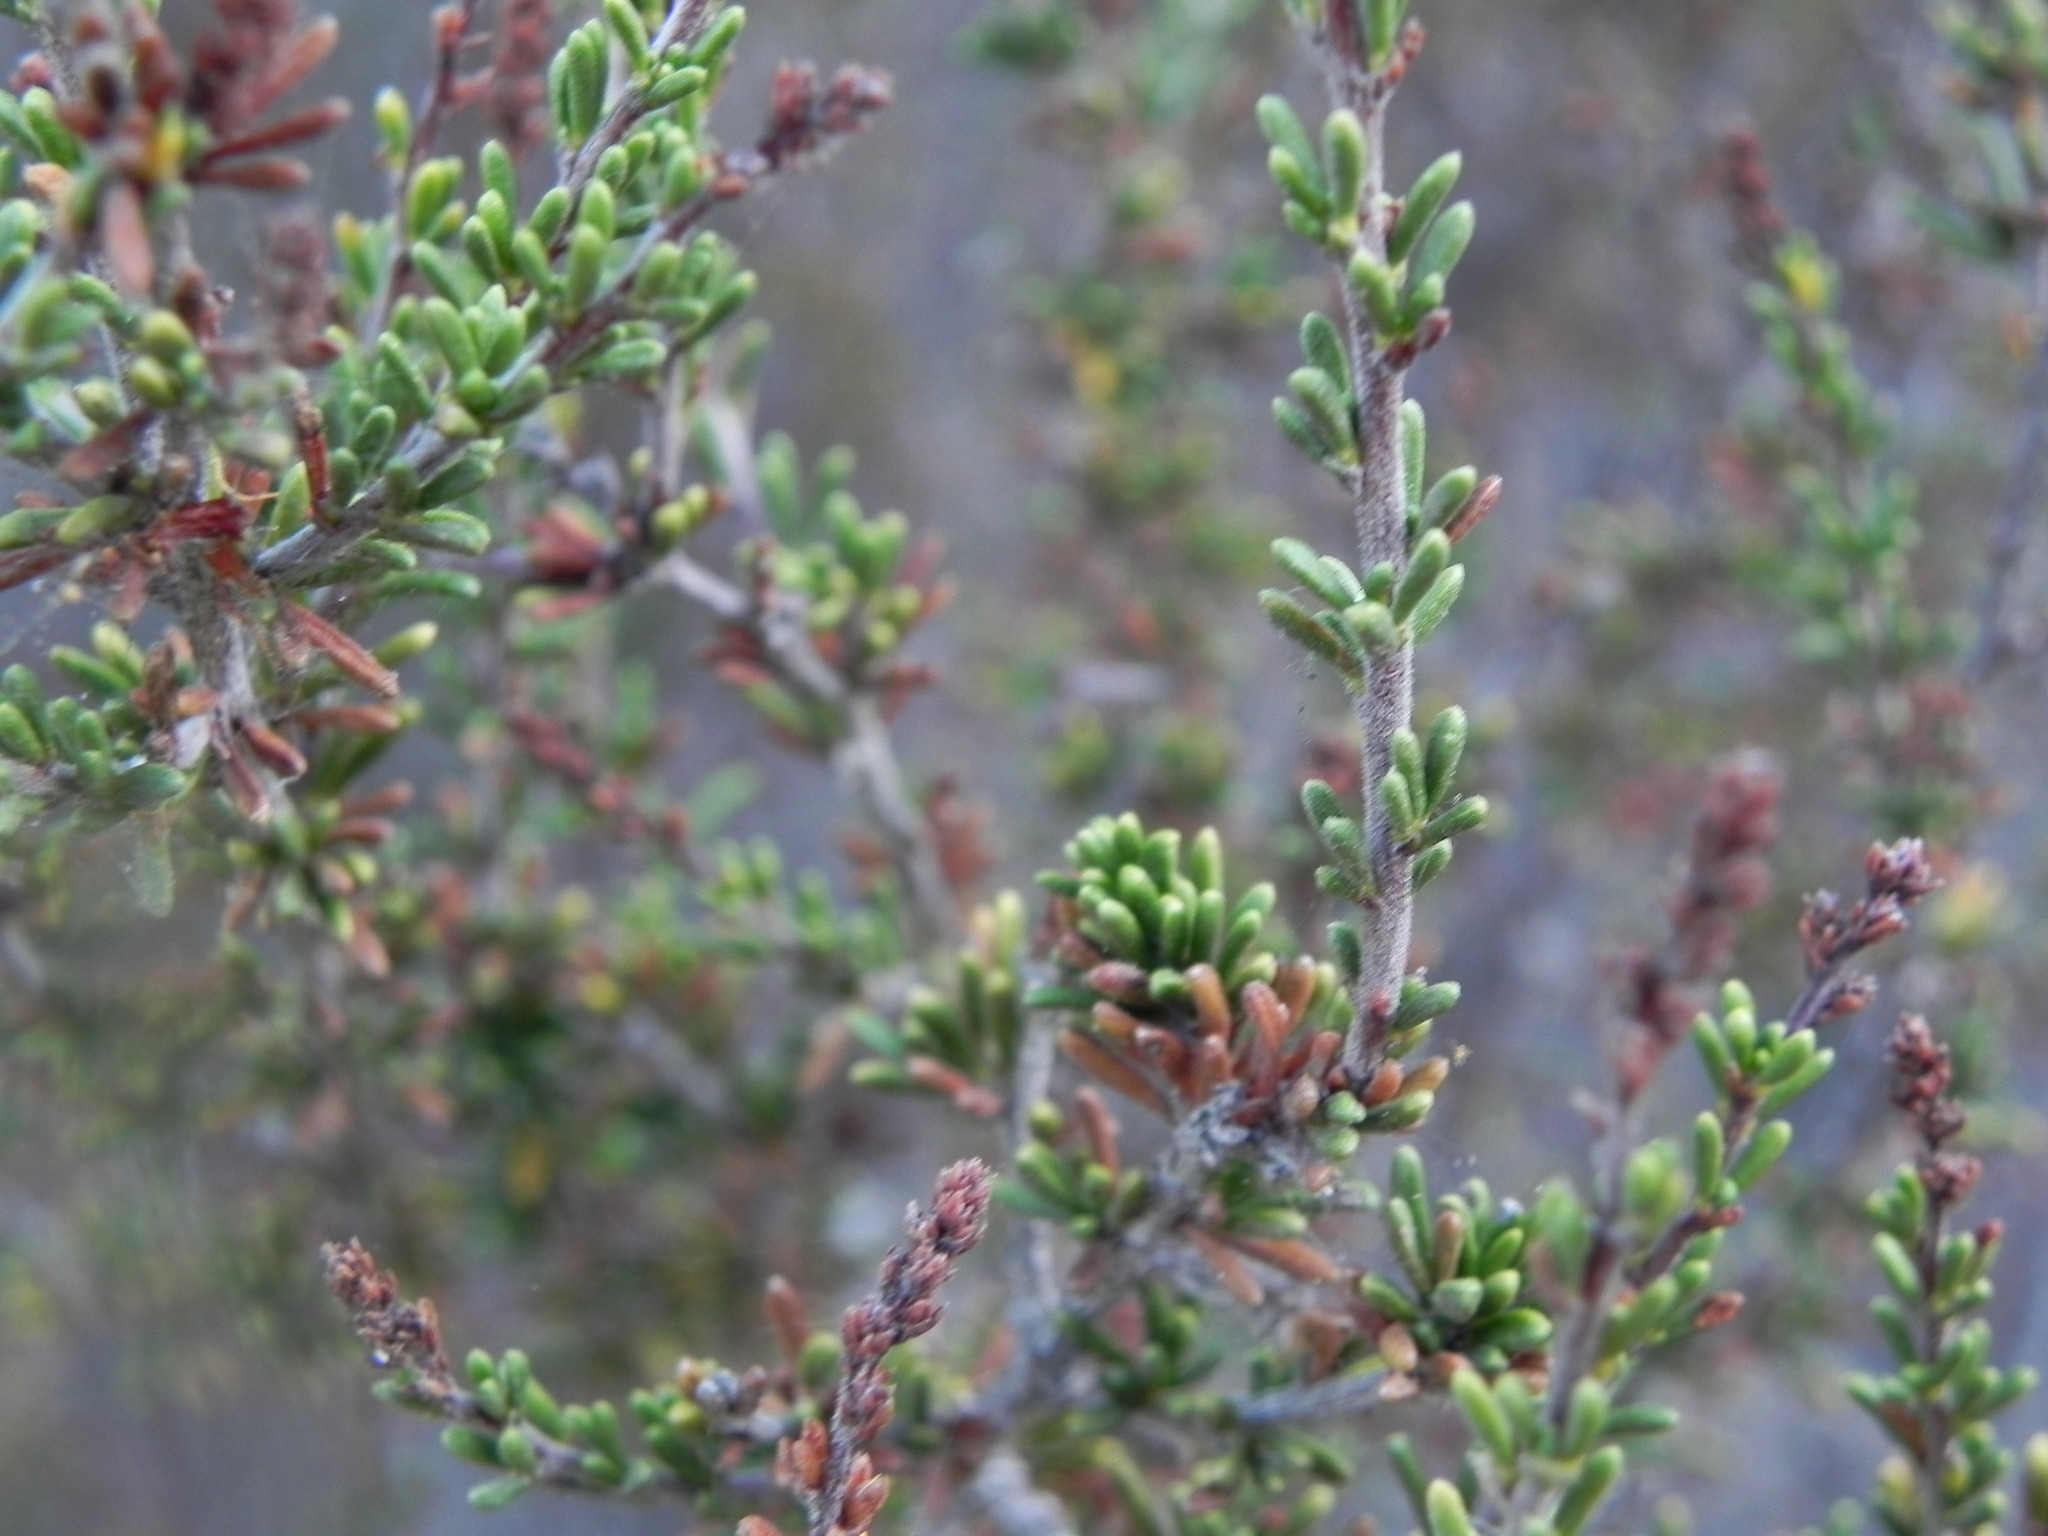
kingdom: Plantae
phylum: Tracheophyta
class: Magnoliopsida
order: Rosales
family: Rosaceae
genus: Adenostoma
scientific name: Adenostoma fasciculatum
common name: Chamise
